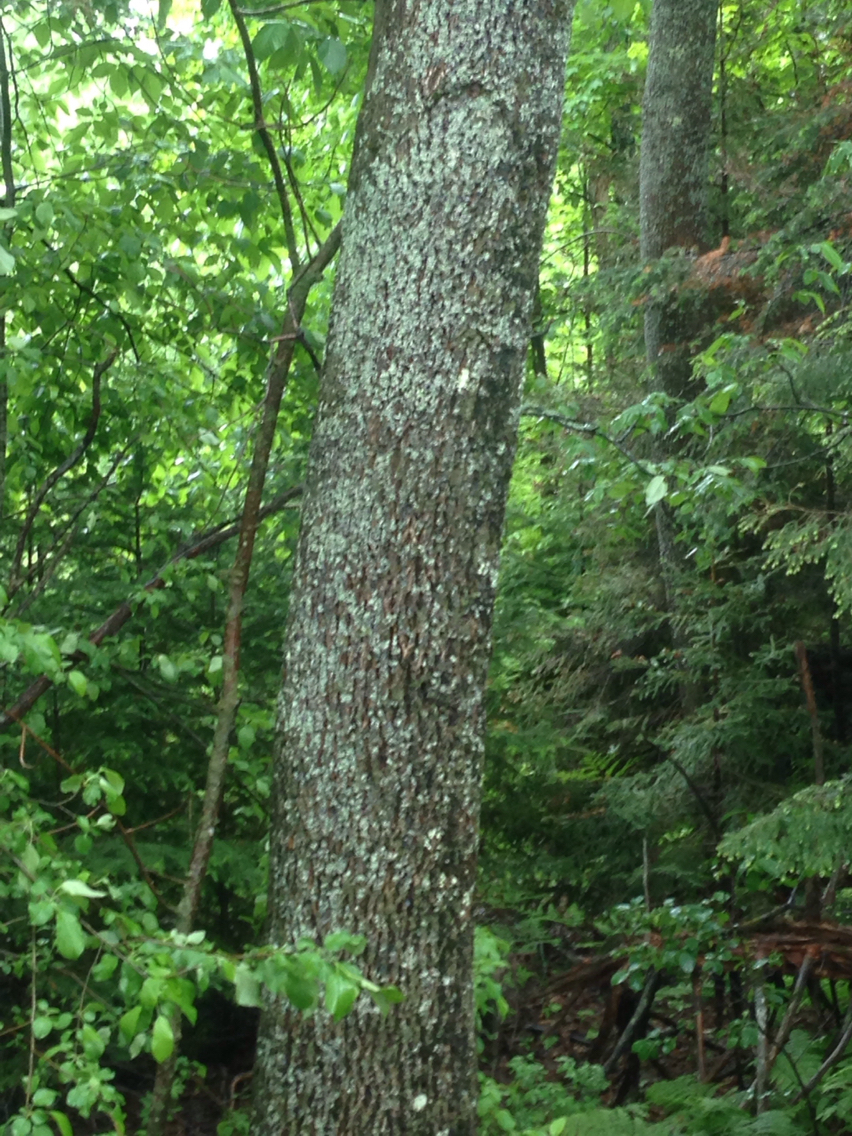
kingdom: Plantae
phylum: Tracheophyta
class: Magnoliopsida
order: Lamiales
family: Oleaceae
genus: Fraxinus
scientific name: Fraxinus americana
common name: White ash
